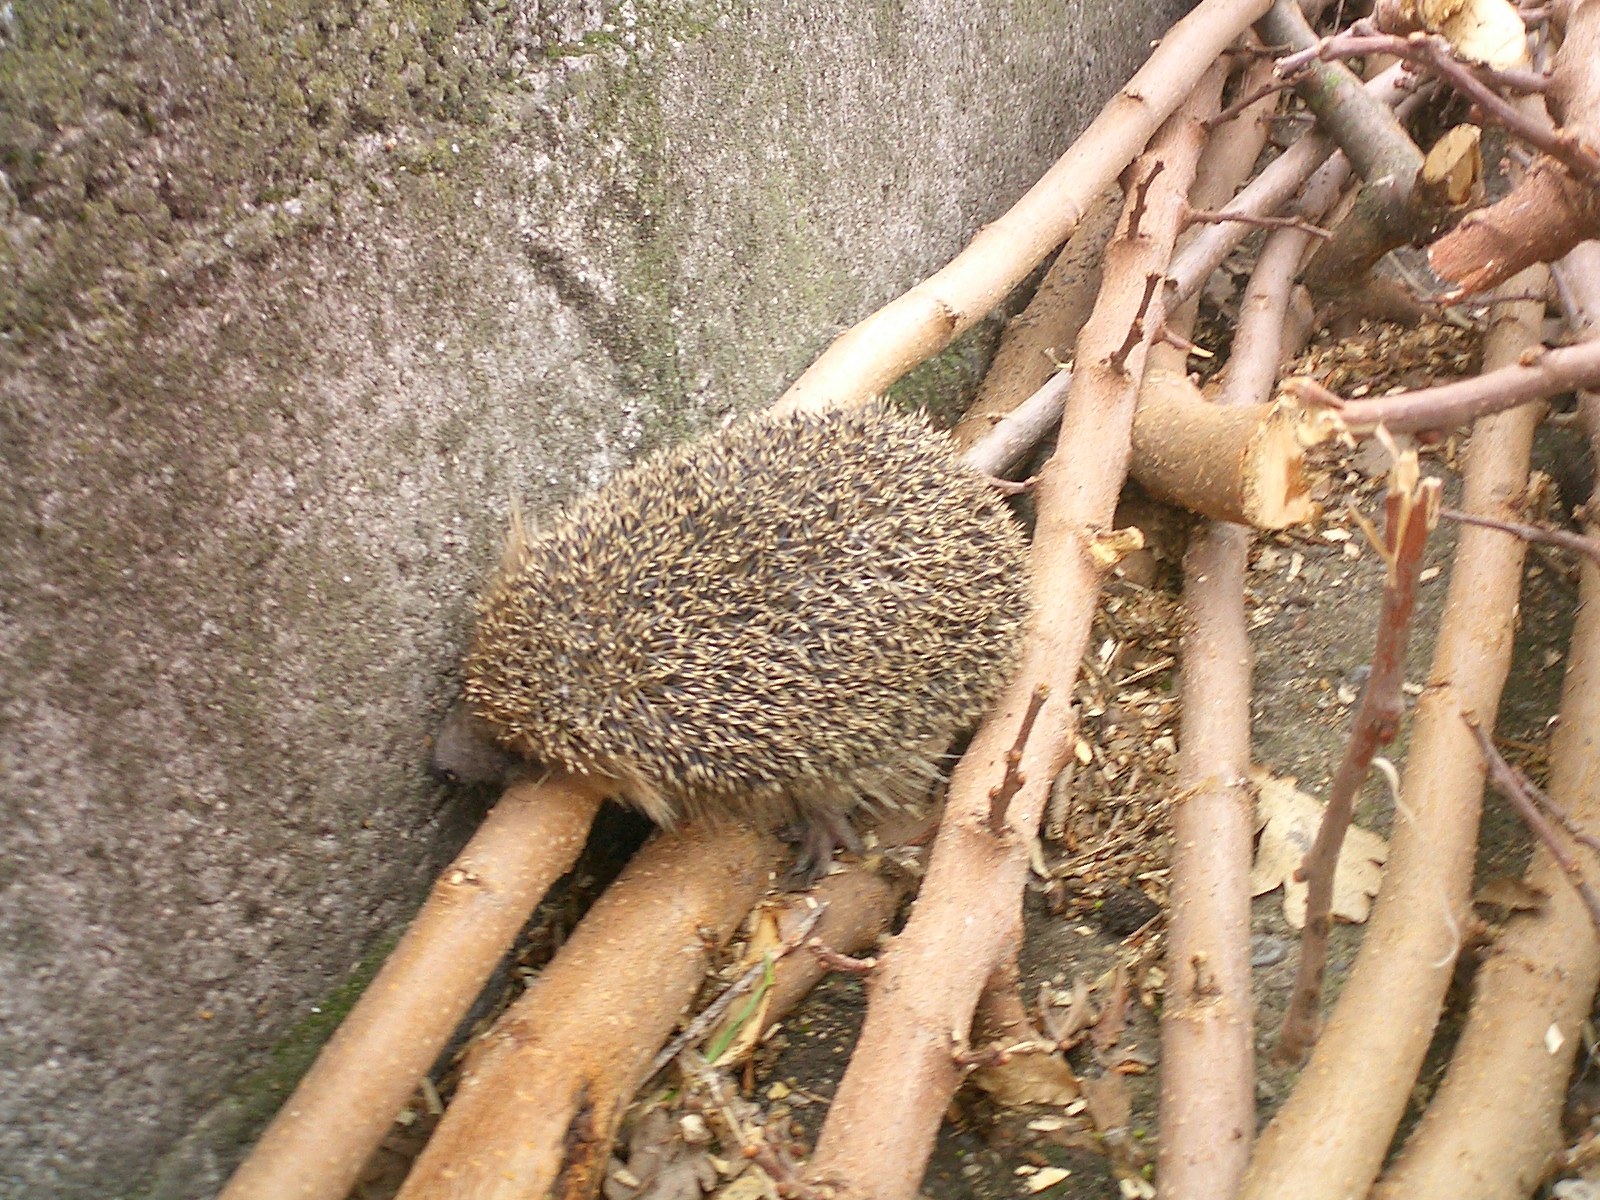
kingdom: Animalia
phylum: Chordata
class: Mammalia
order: Erinaceomorpha
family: Erinaceidae
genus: Erinaceus
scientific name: Erinaceus europaeus
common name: West european hedgehog
